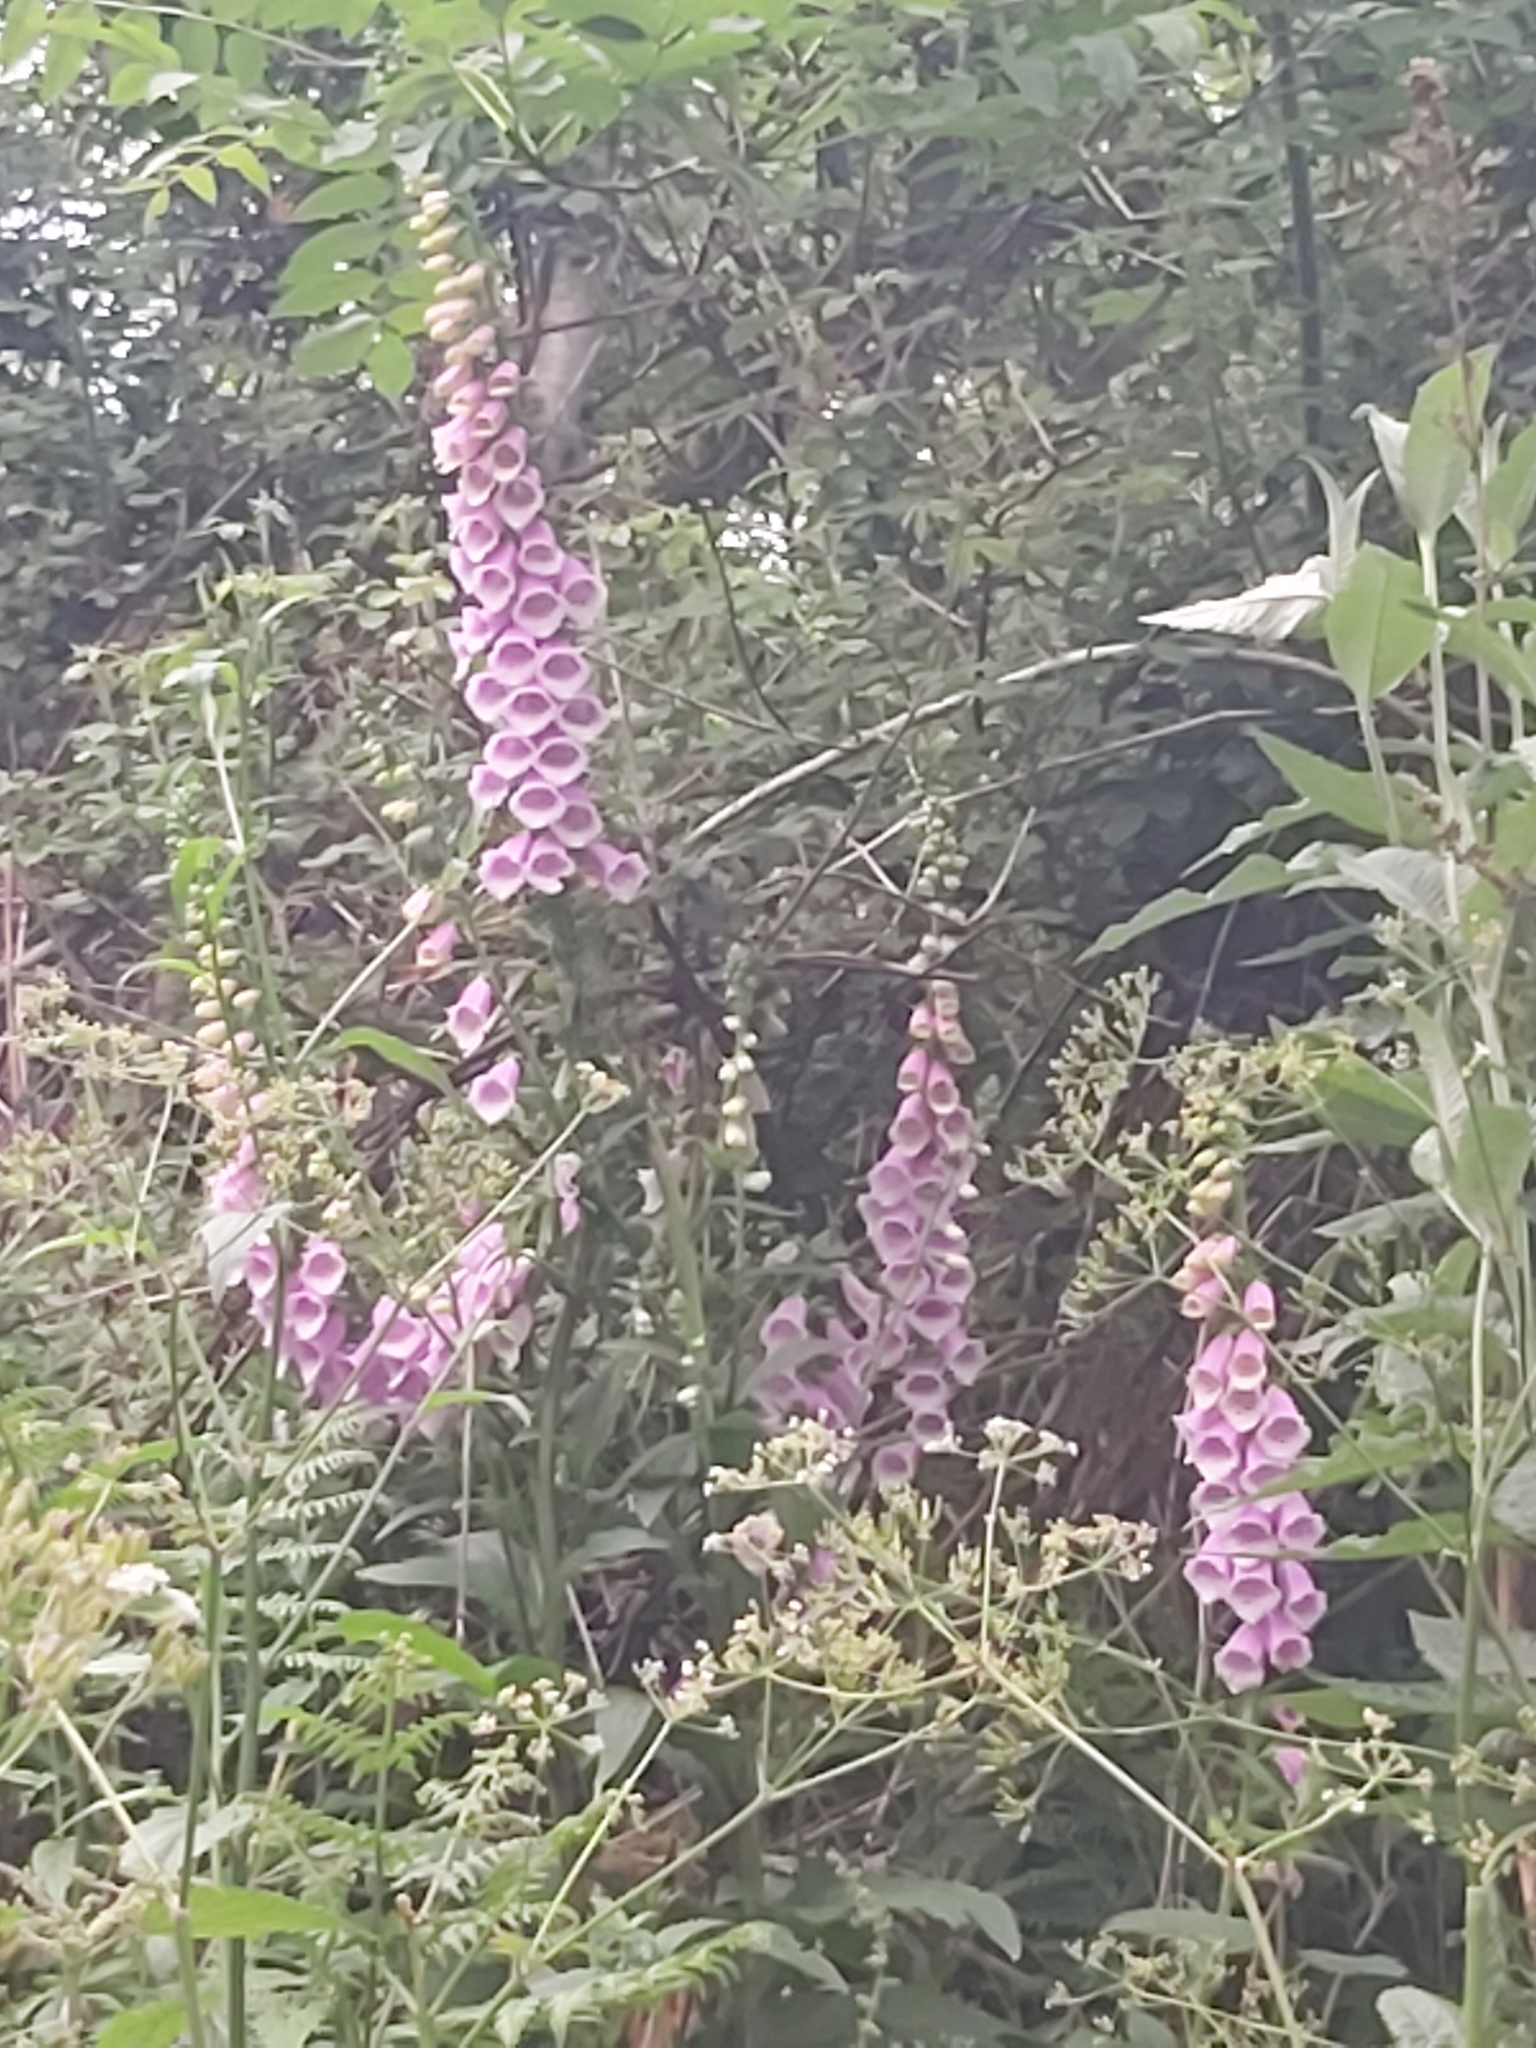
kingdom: Plantae
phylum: Tracheophyta
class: Magnoliopsida
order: Lamiales
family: Plantaginaceae
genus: Digitalis
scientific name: Digitalis purpurea
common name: Foxglove
